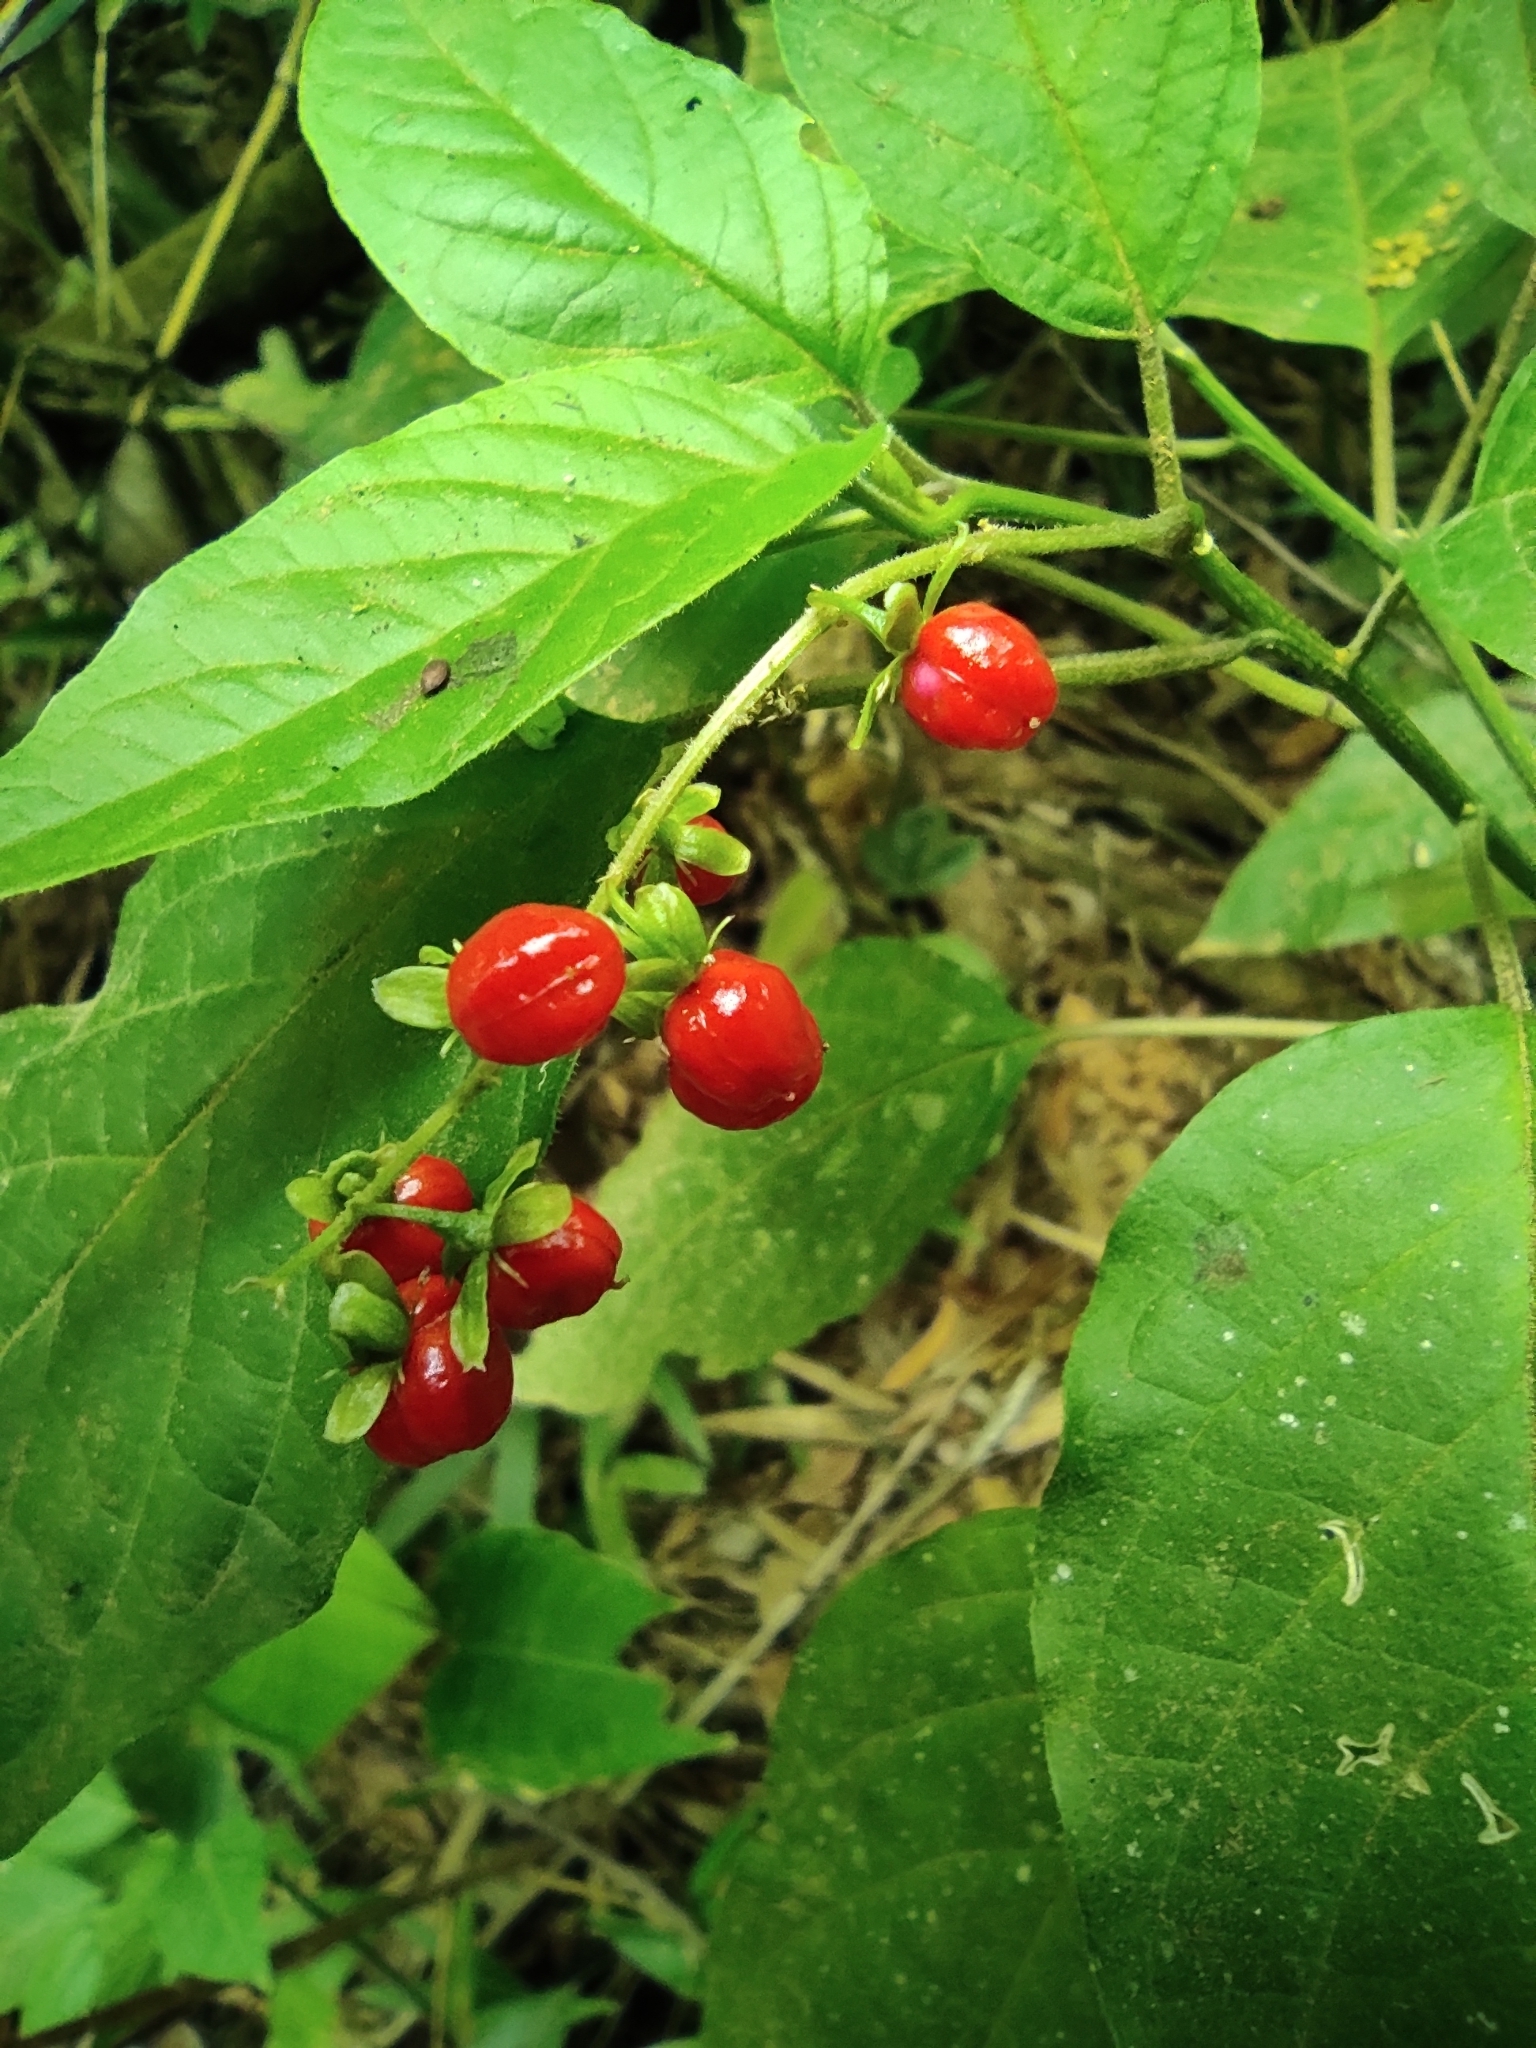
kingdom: Plantae
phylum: Tracheophyta
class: Magnoliopsida
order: Caryophyllales
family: Phytolaccaceae
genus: Rivina
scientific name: Rivina humilis
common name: Rougeplant
